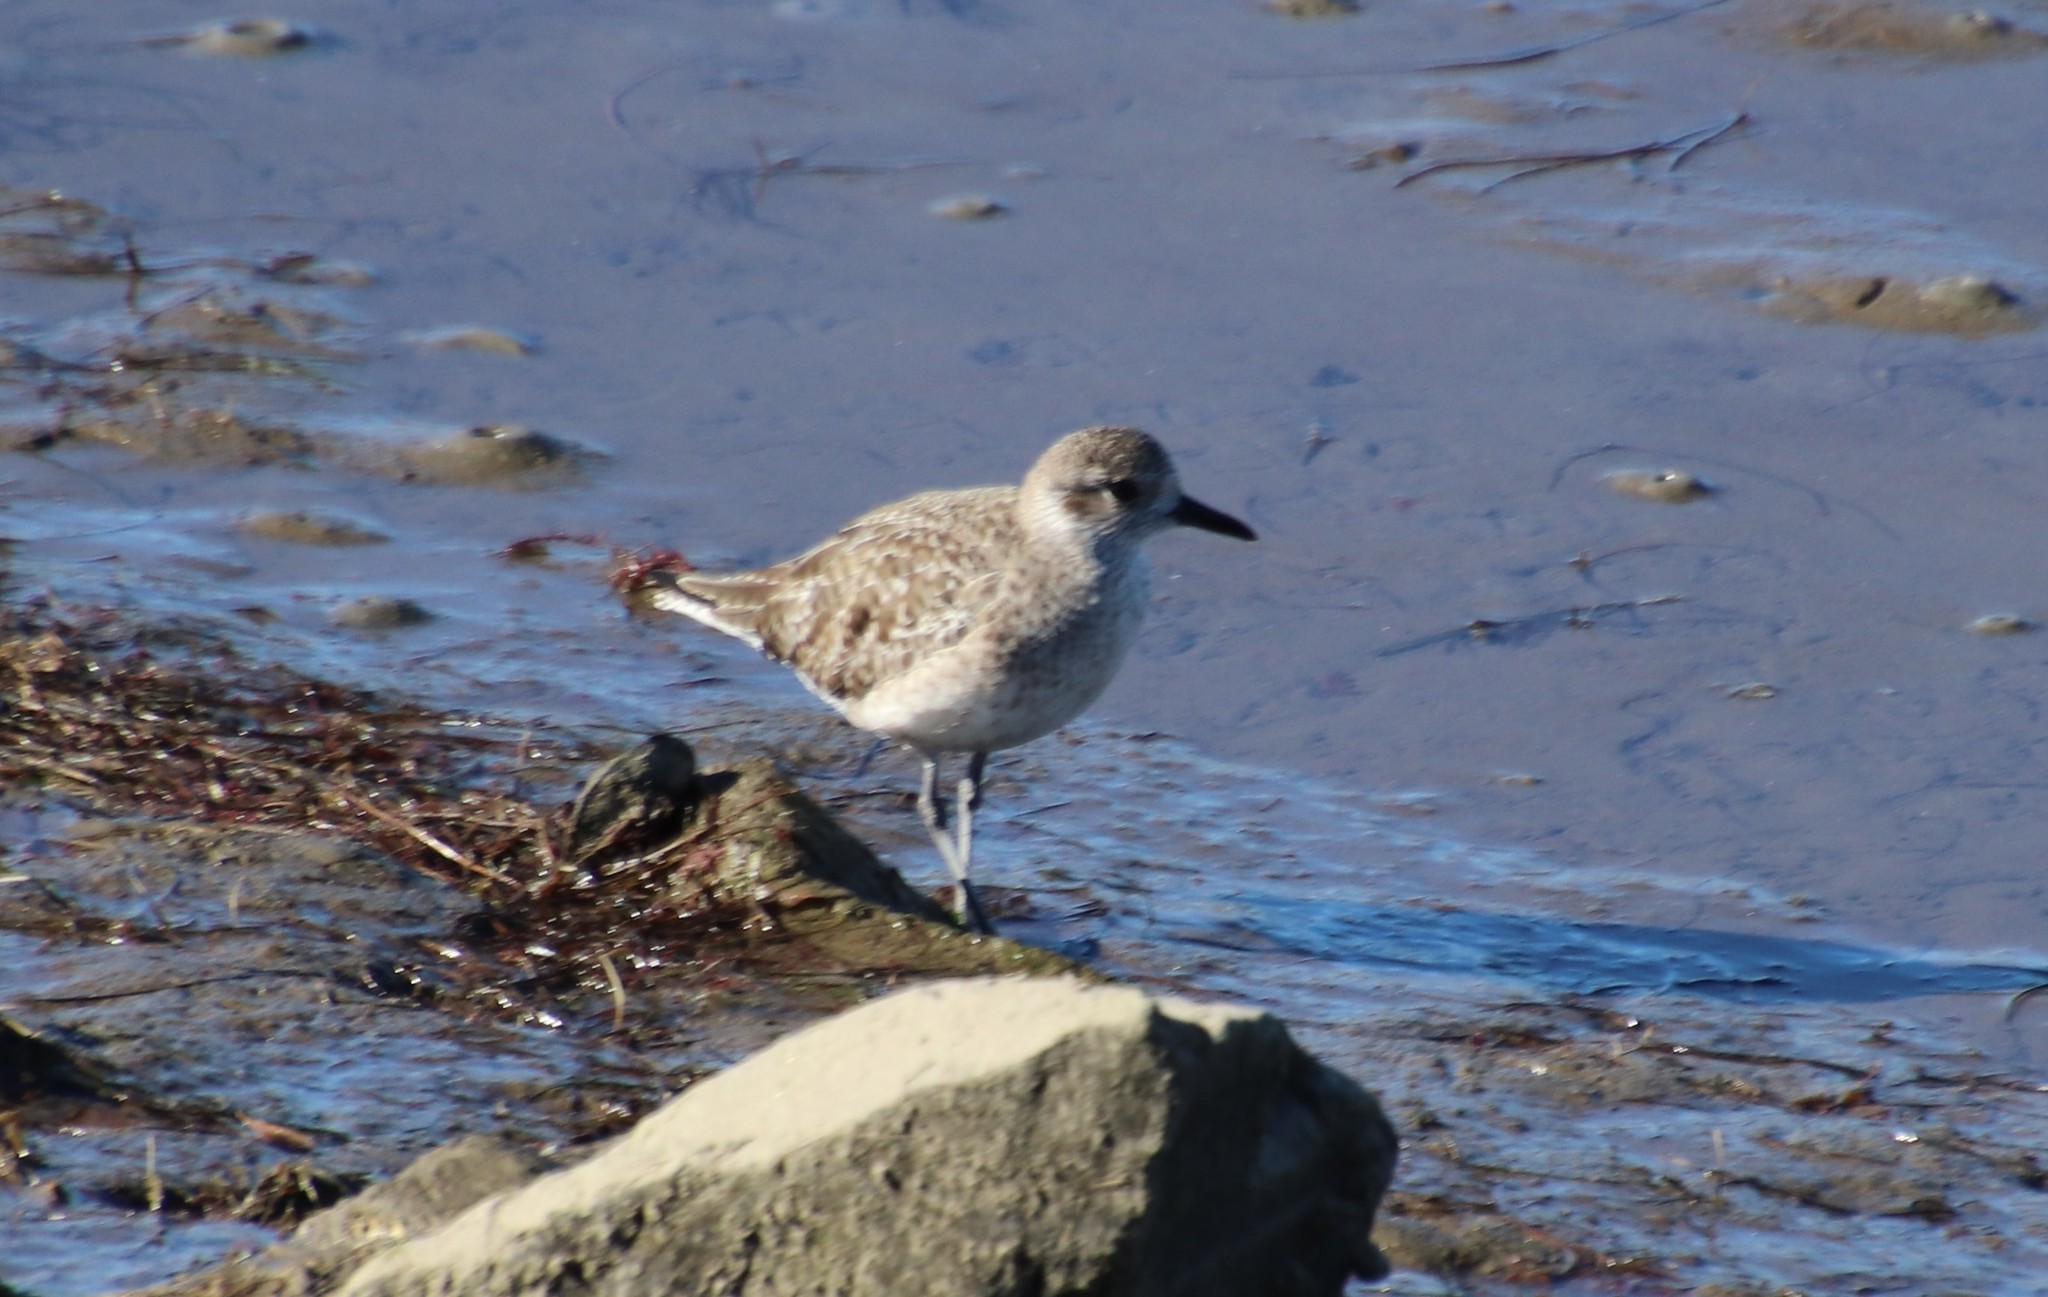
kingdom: Animalia
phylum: Chordata
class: Aves
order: Charadriiformes
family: Charadriidae
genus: Pluvialis
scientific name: Pluvialis squatarola
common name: Grey plover
